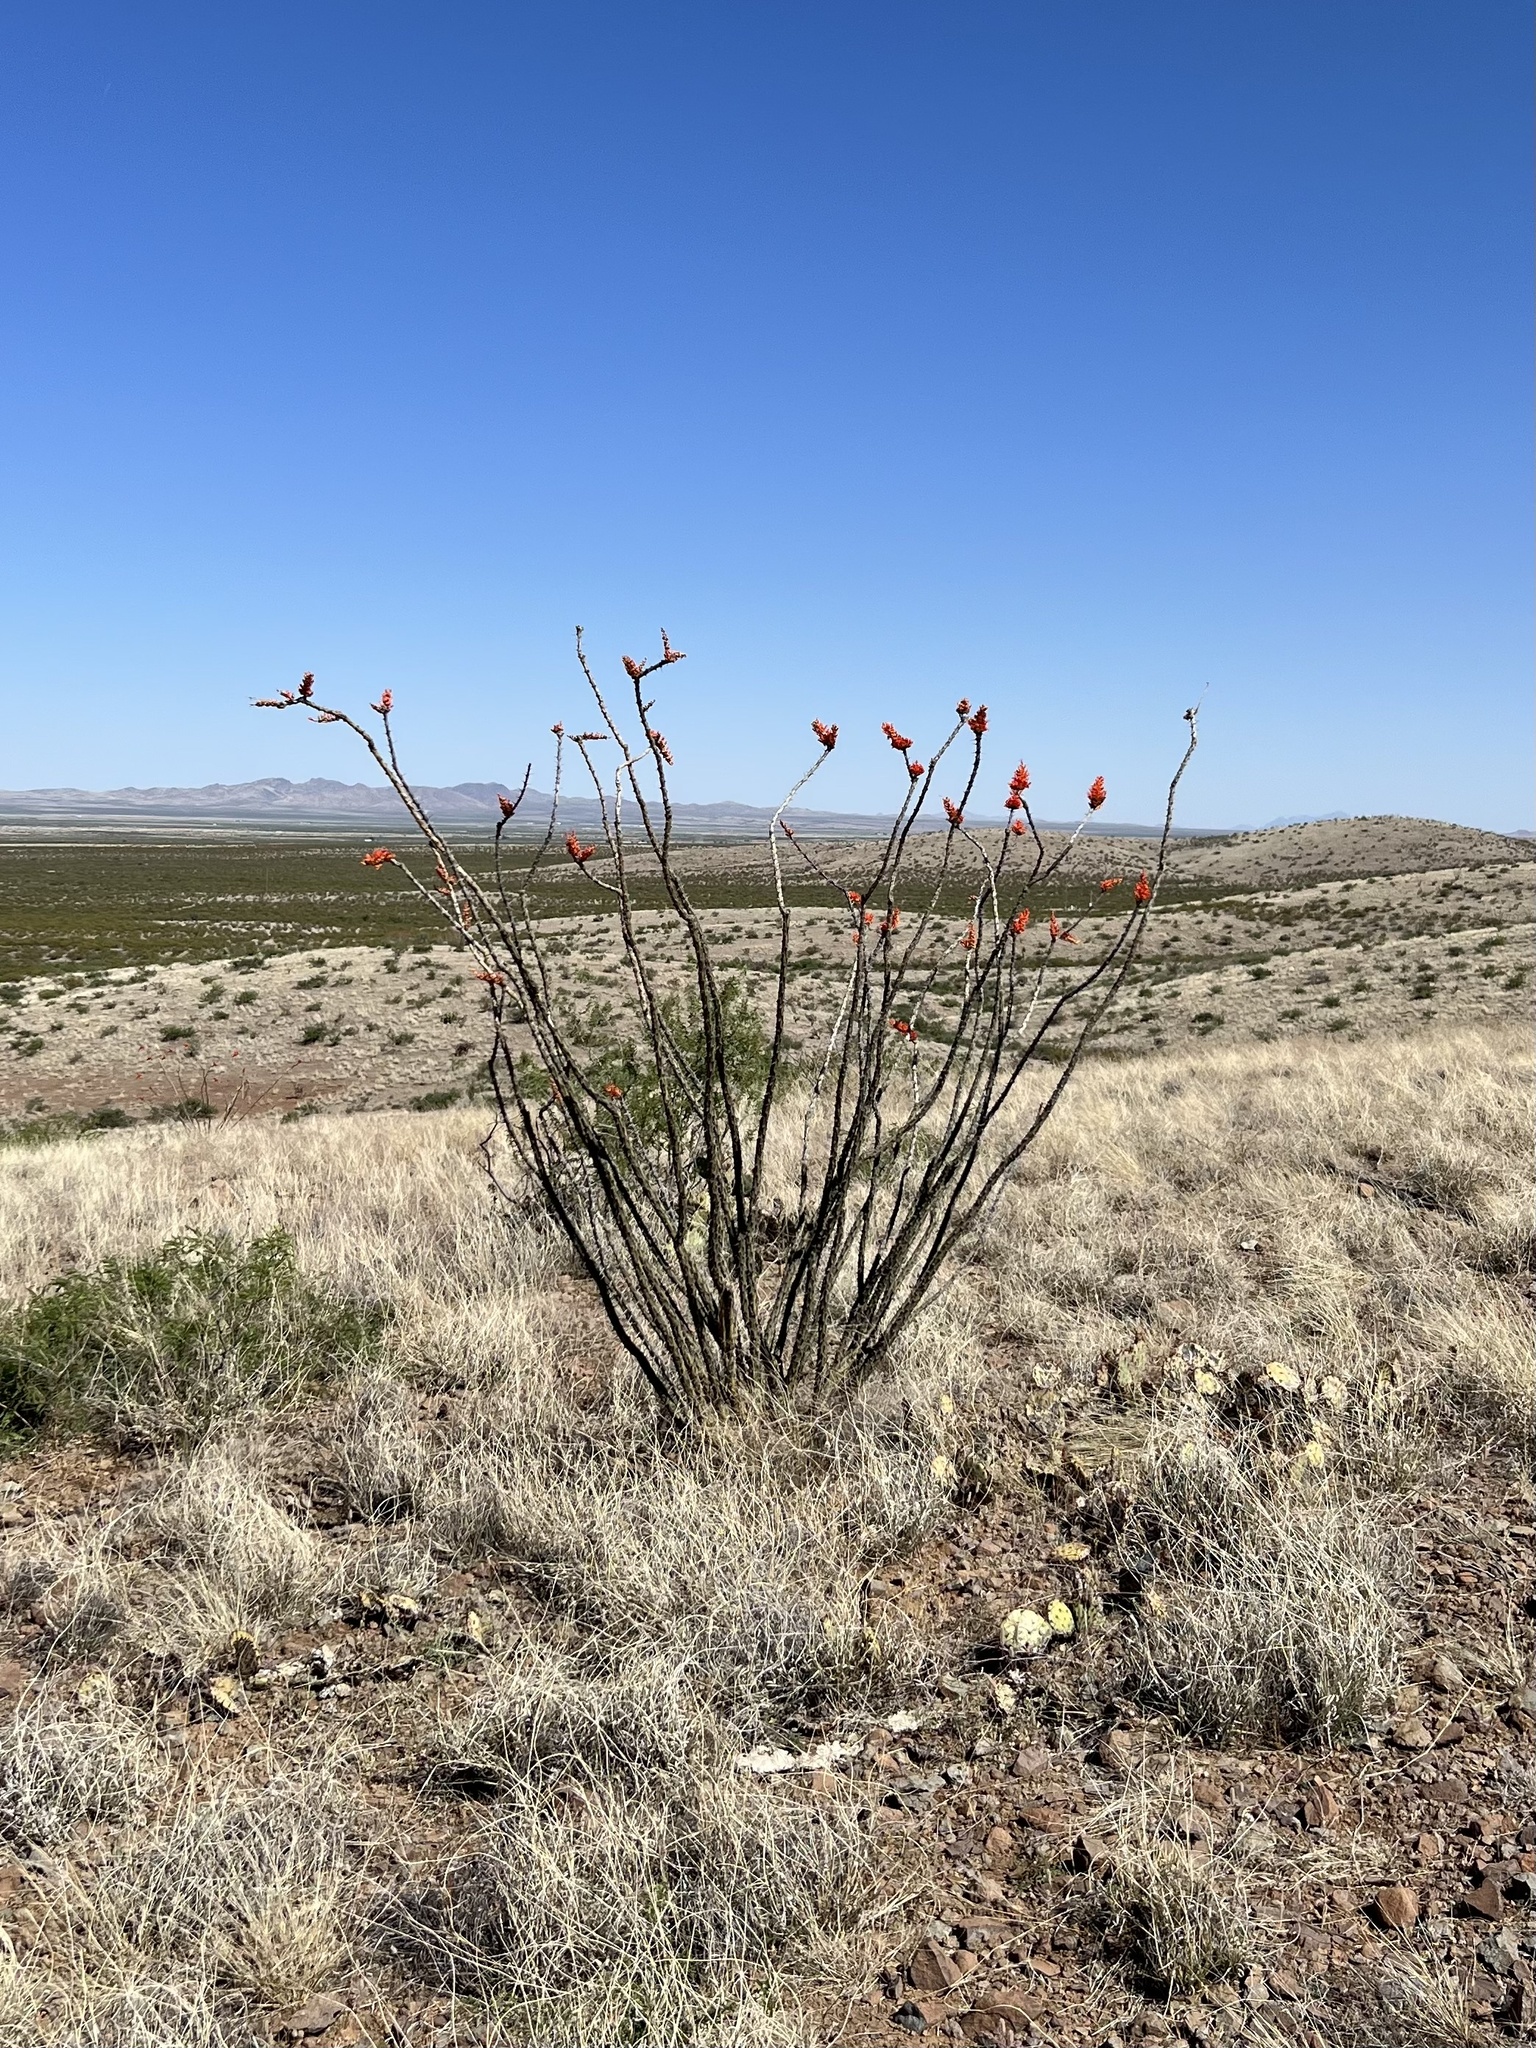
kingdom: Plantae
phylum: Tracheophyta
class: Magnoliopsida
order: Ericales
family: Fouquieriaceae
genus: Fouquieria
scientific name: Fouquieria splendens
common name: Vine-cactus
